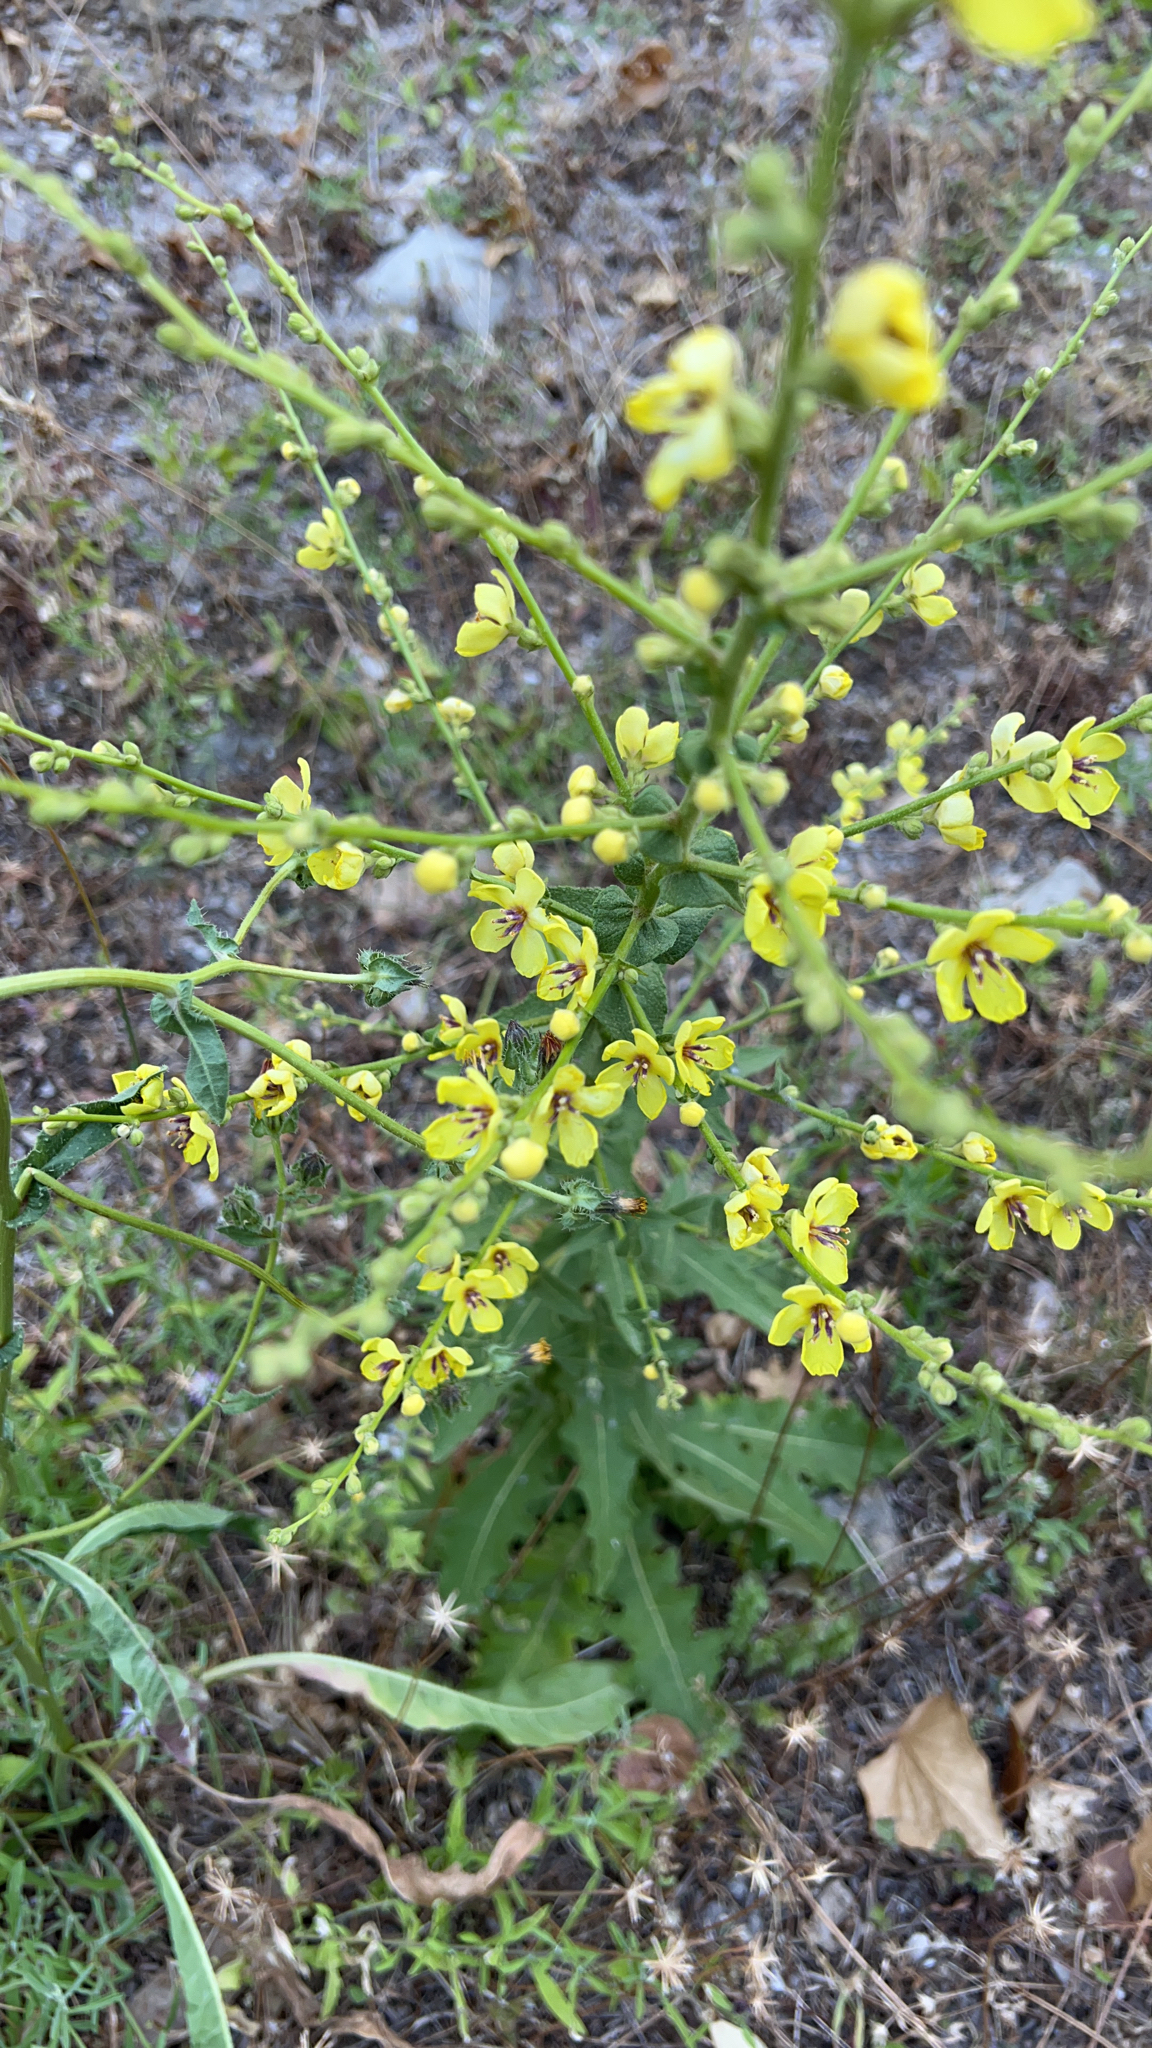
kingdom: Plantae
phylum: Tracheophyta
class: Magnoliopsida
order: Lamiales
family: Scrophulariaceae
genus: Verbascum
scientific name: Verbascum sinuatum
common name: Wavyleaf mullein
